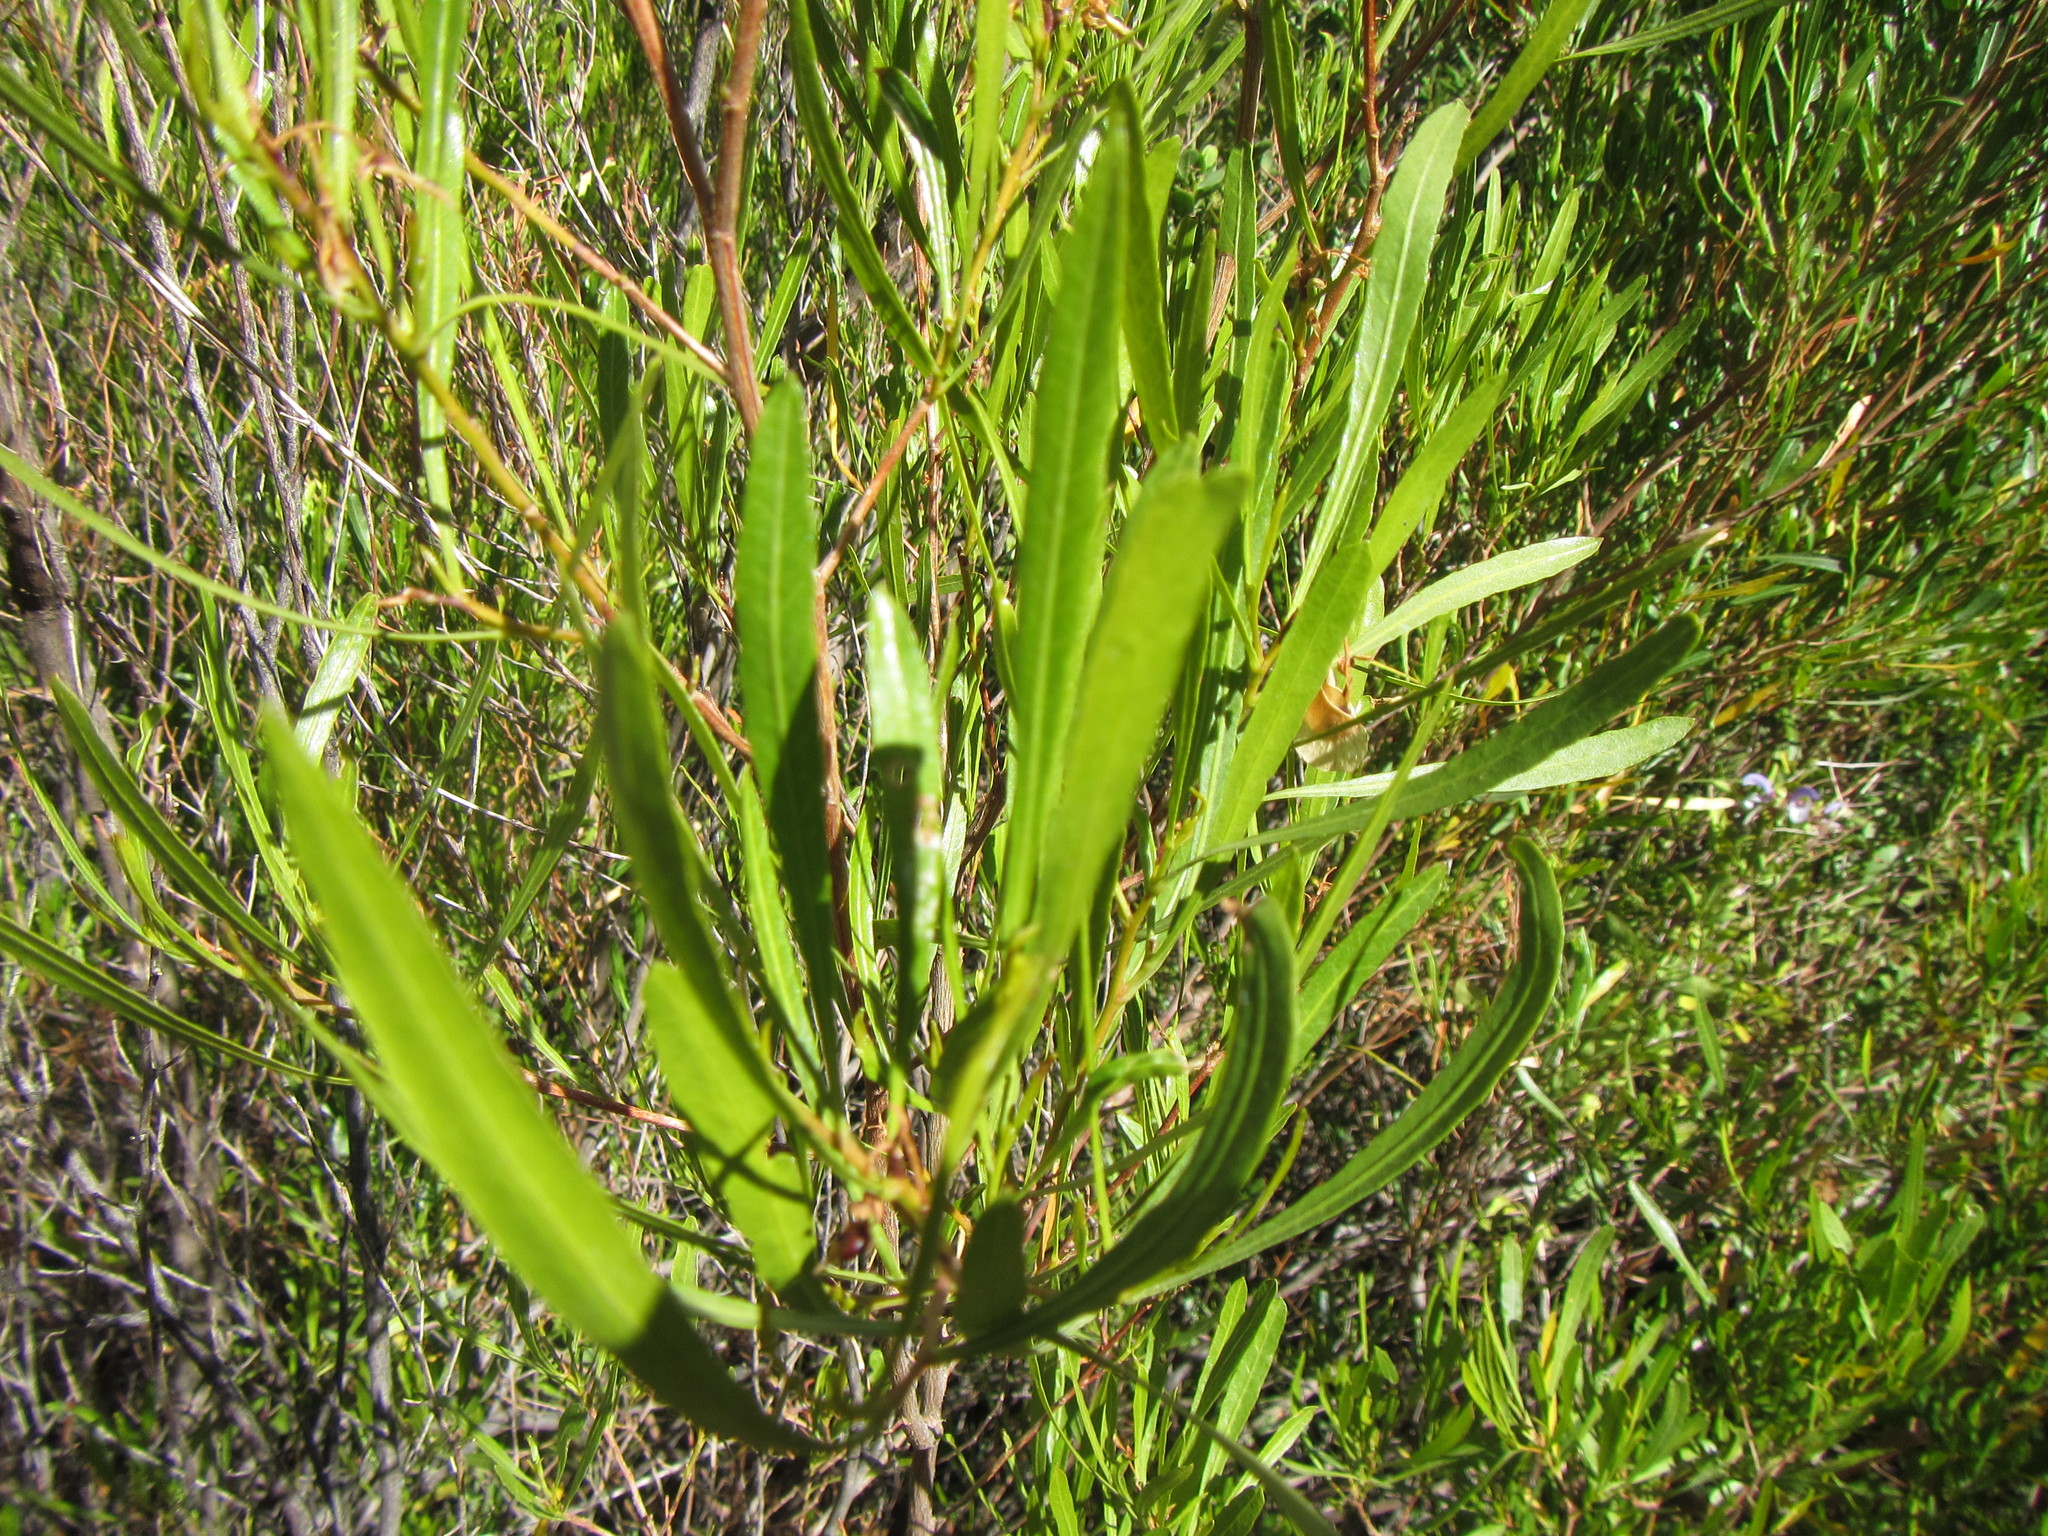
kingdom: Plantae
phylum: Tracheophyta
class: Magnoliopsida
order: Sapindales
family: Sapindaceae
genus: Dodonaea
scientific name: Dodonaea viscosa
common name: Hopbush
